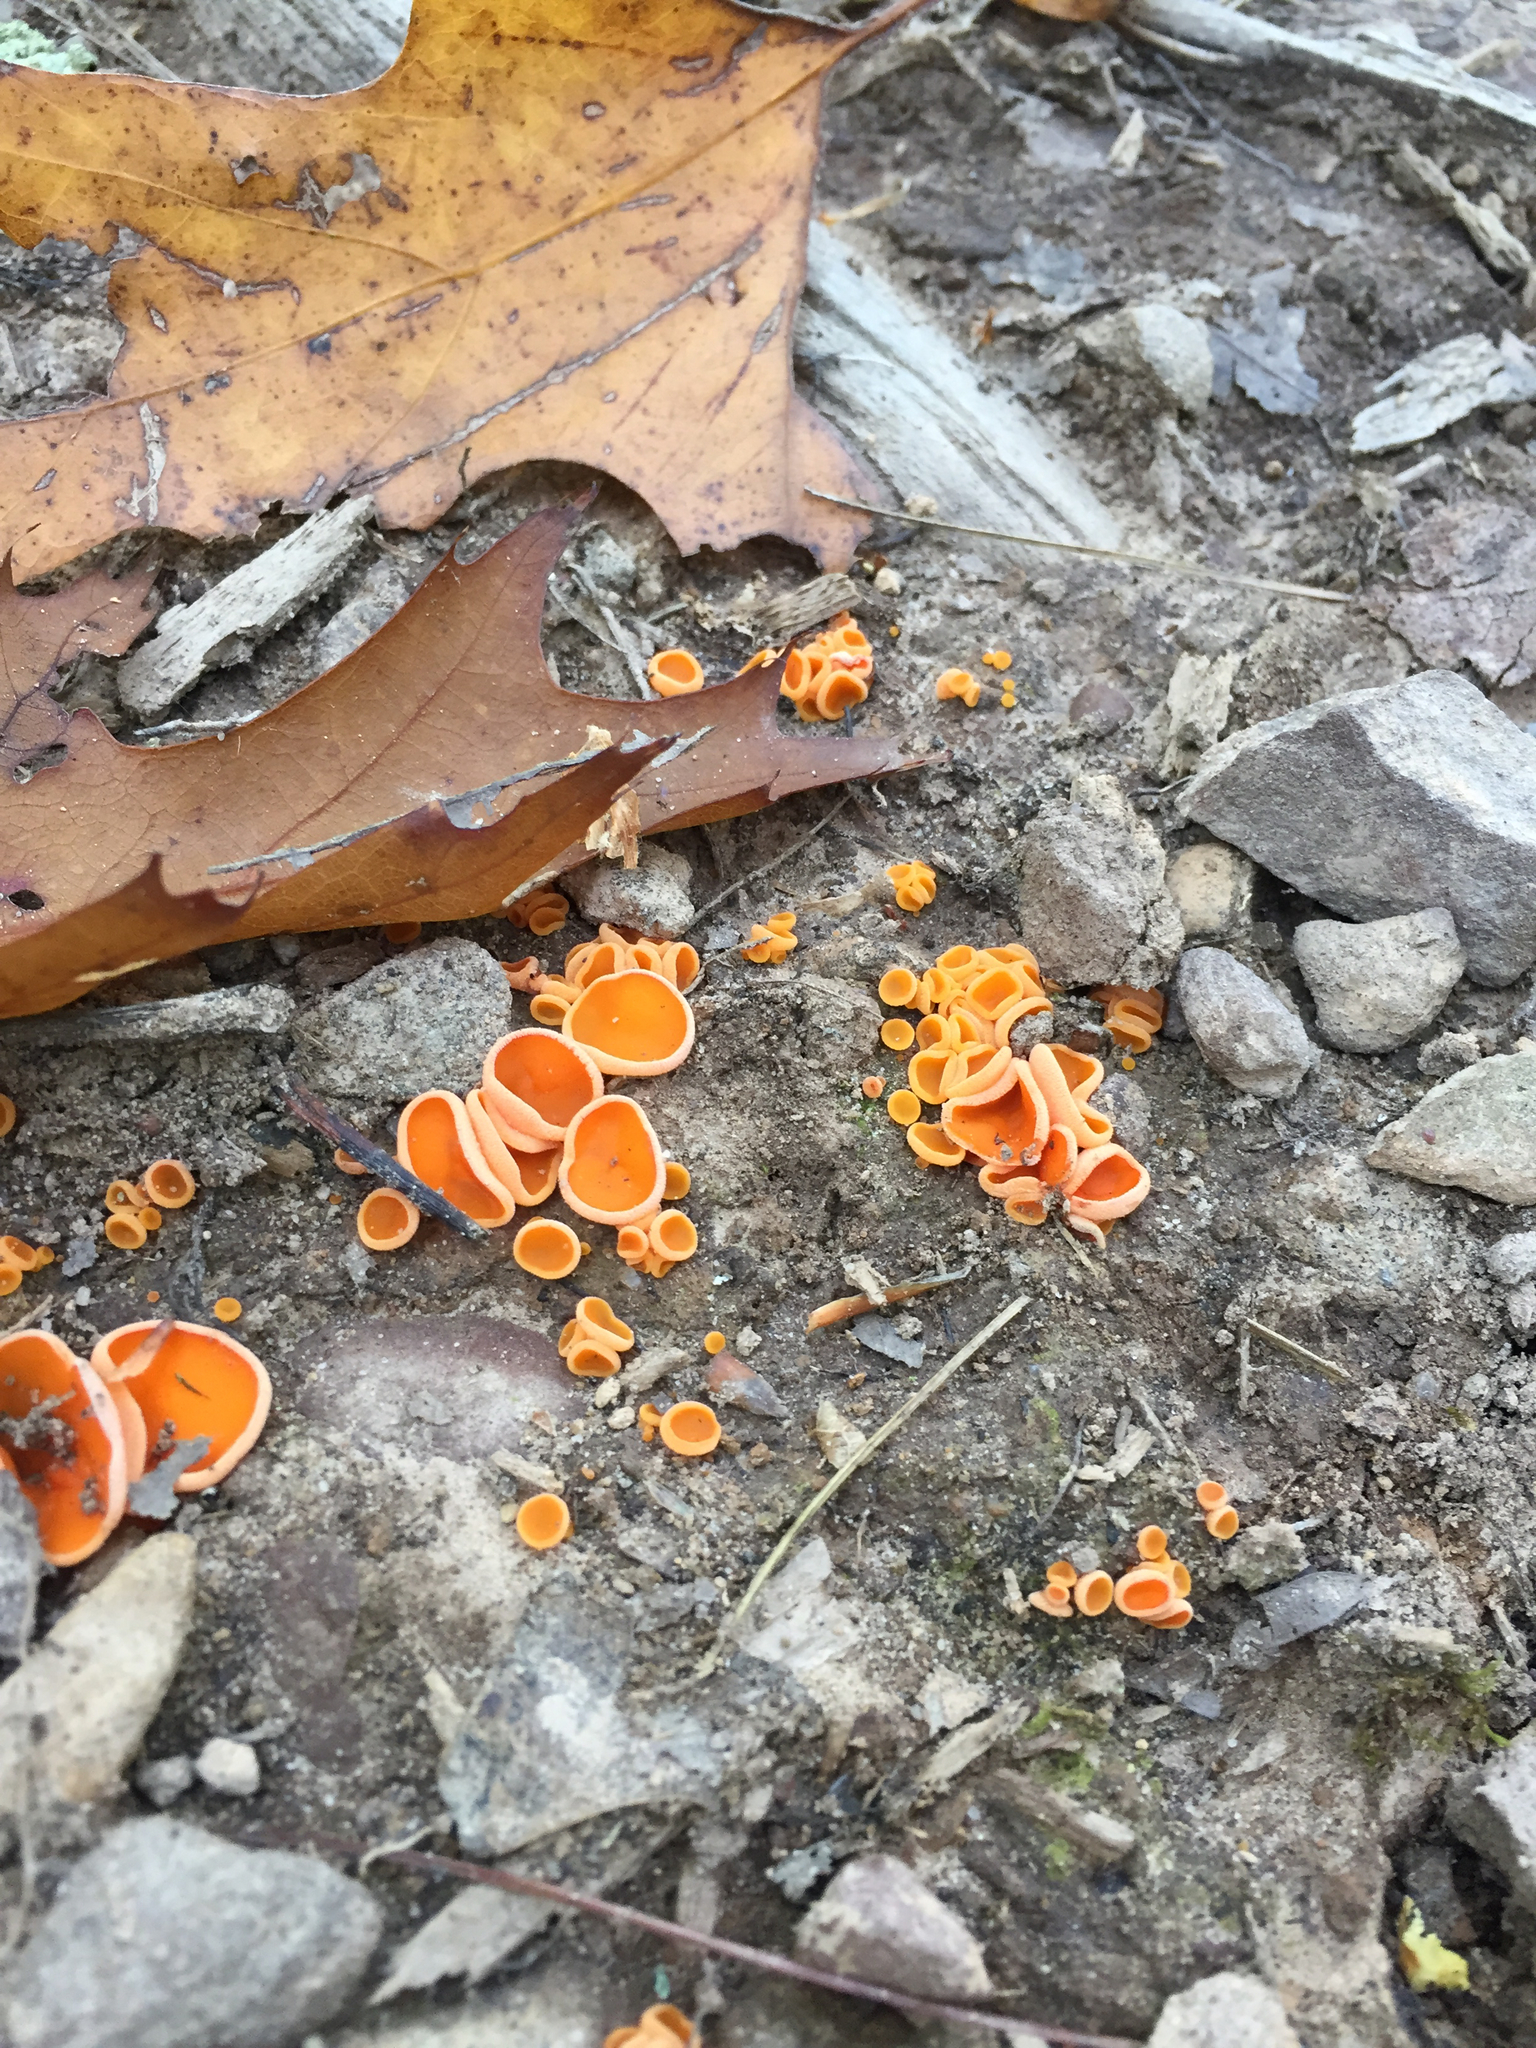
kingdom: Fungi
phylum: Ascomycota
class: Pezizomycetes
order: Pezizales
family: Pyronemataceae
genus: Aleuria
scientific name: Aleuria aurantia
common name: Orange peel fungus
